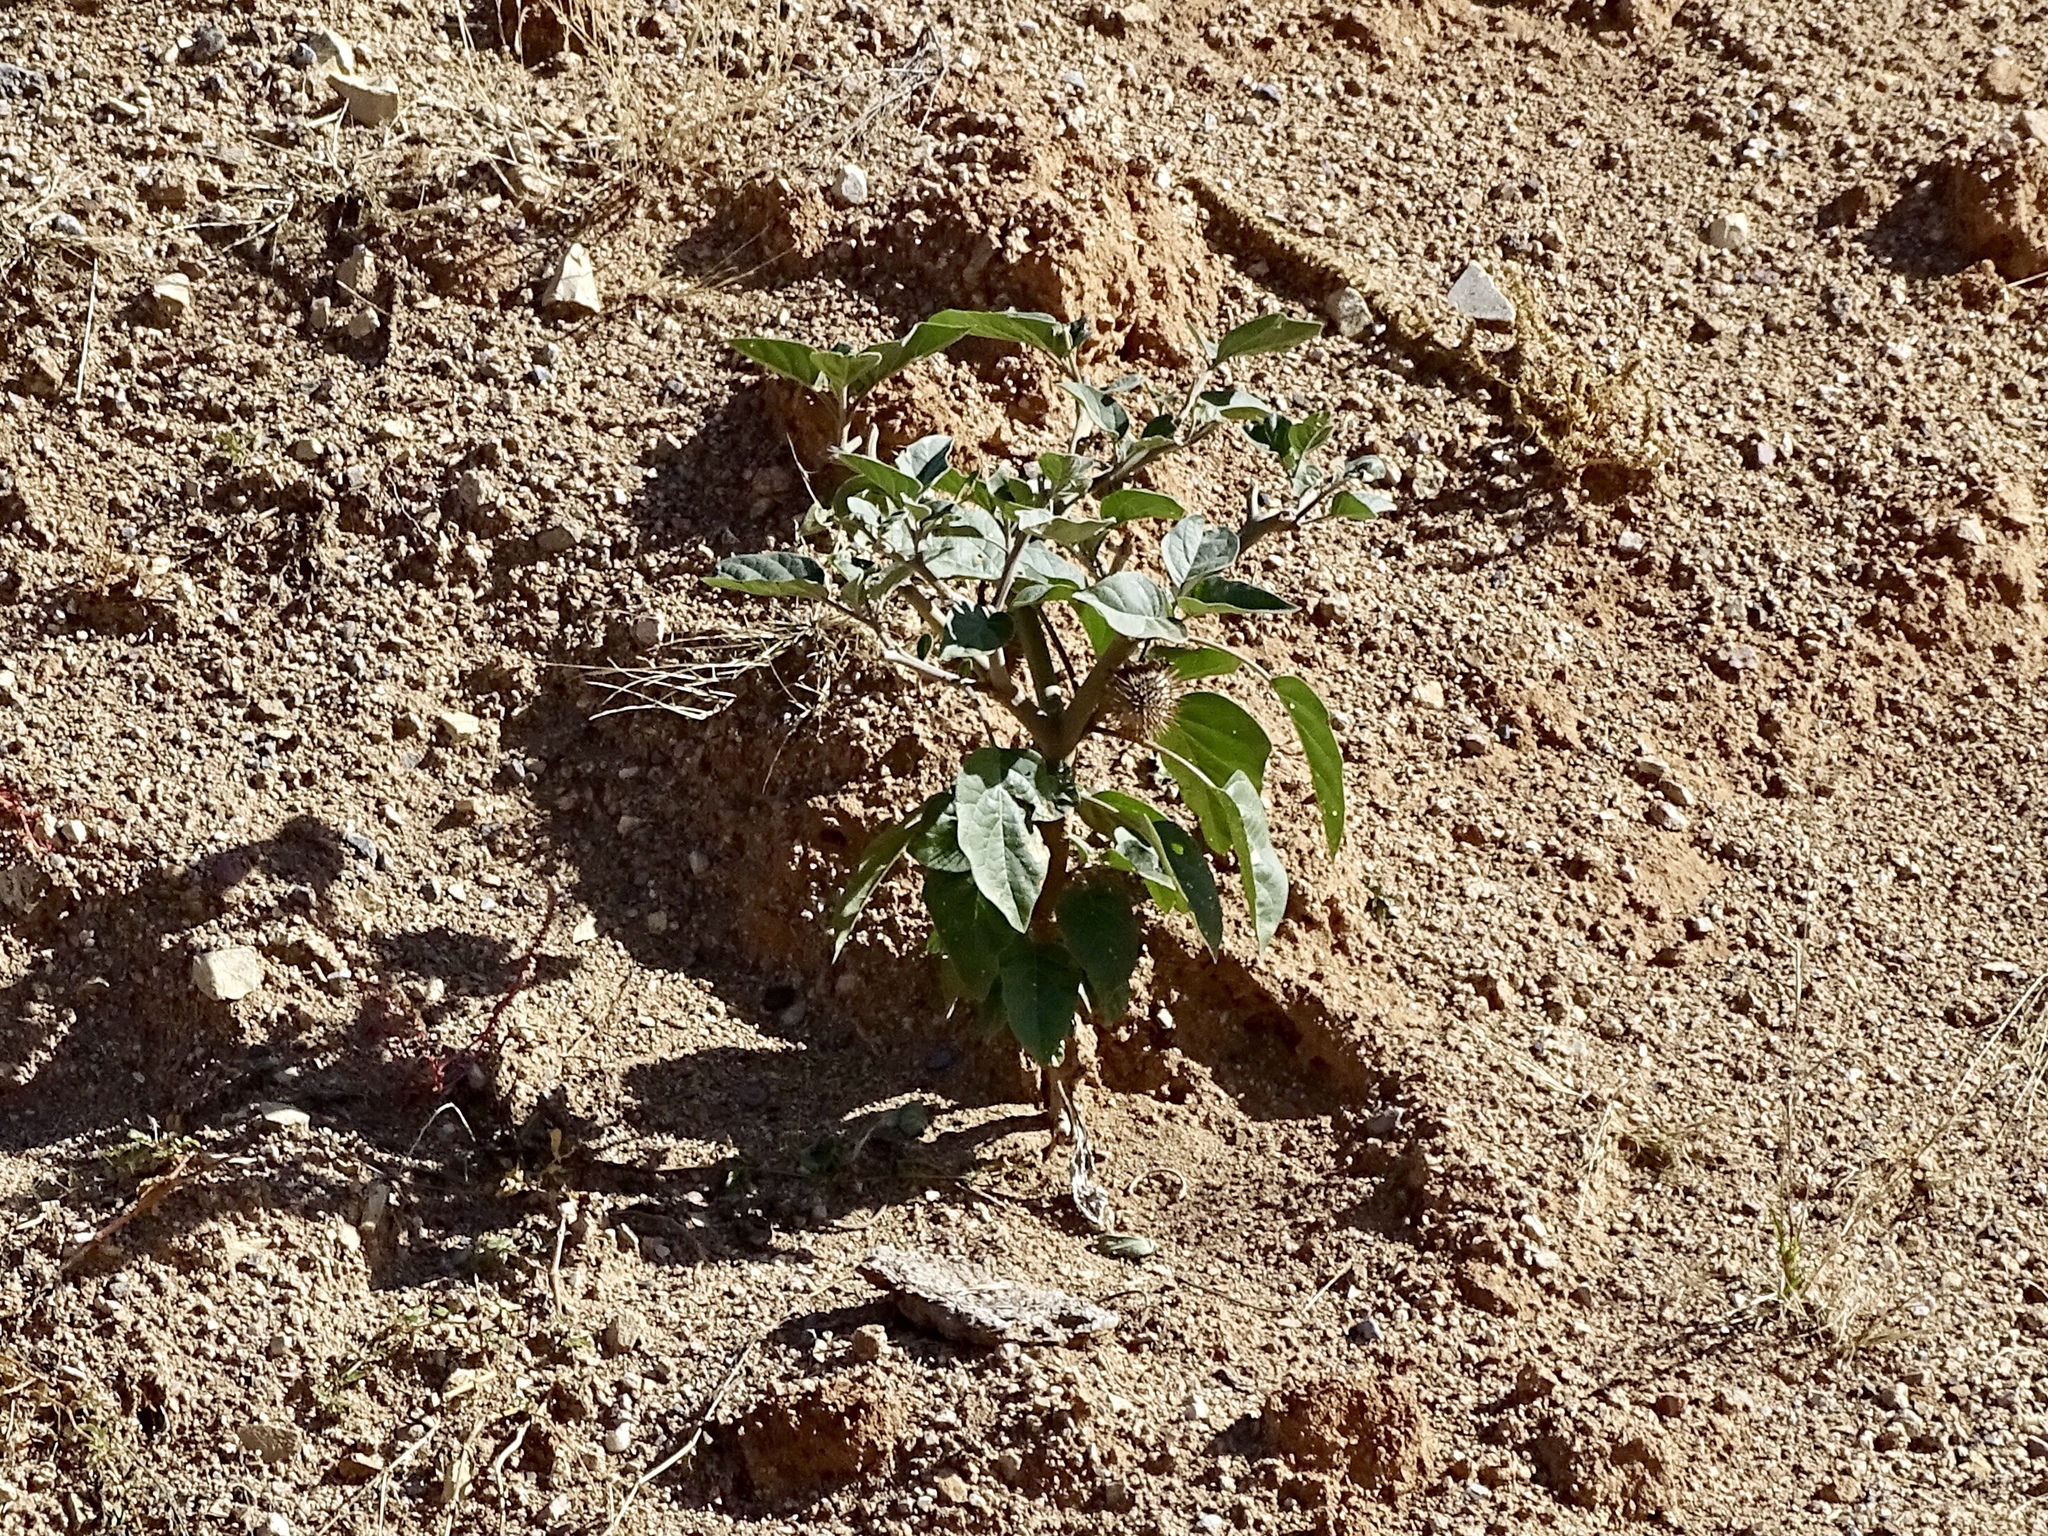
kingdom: Plantae
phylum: Tracheophyta
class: Magnoliopsida
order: Solanales
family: Solanaceae
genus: Datura
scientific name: Datura wrightii
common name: Sacred thorn-apple
